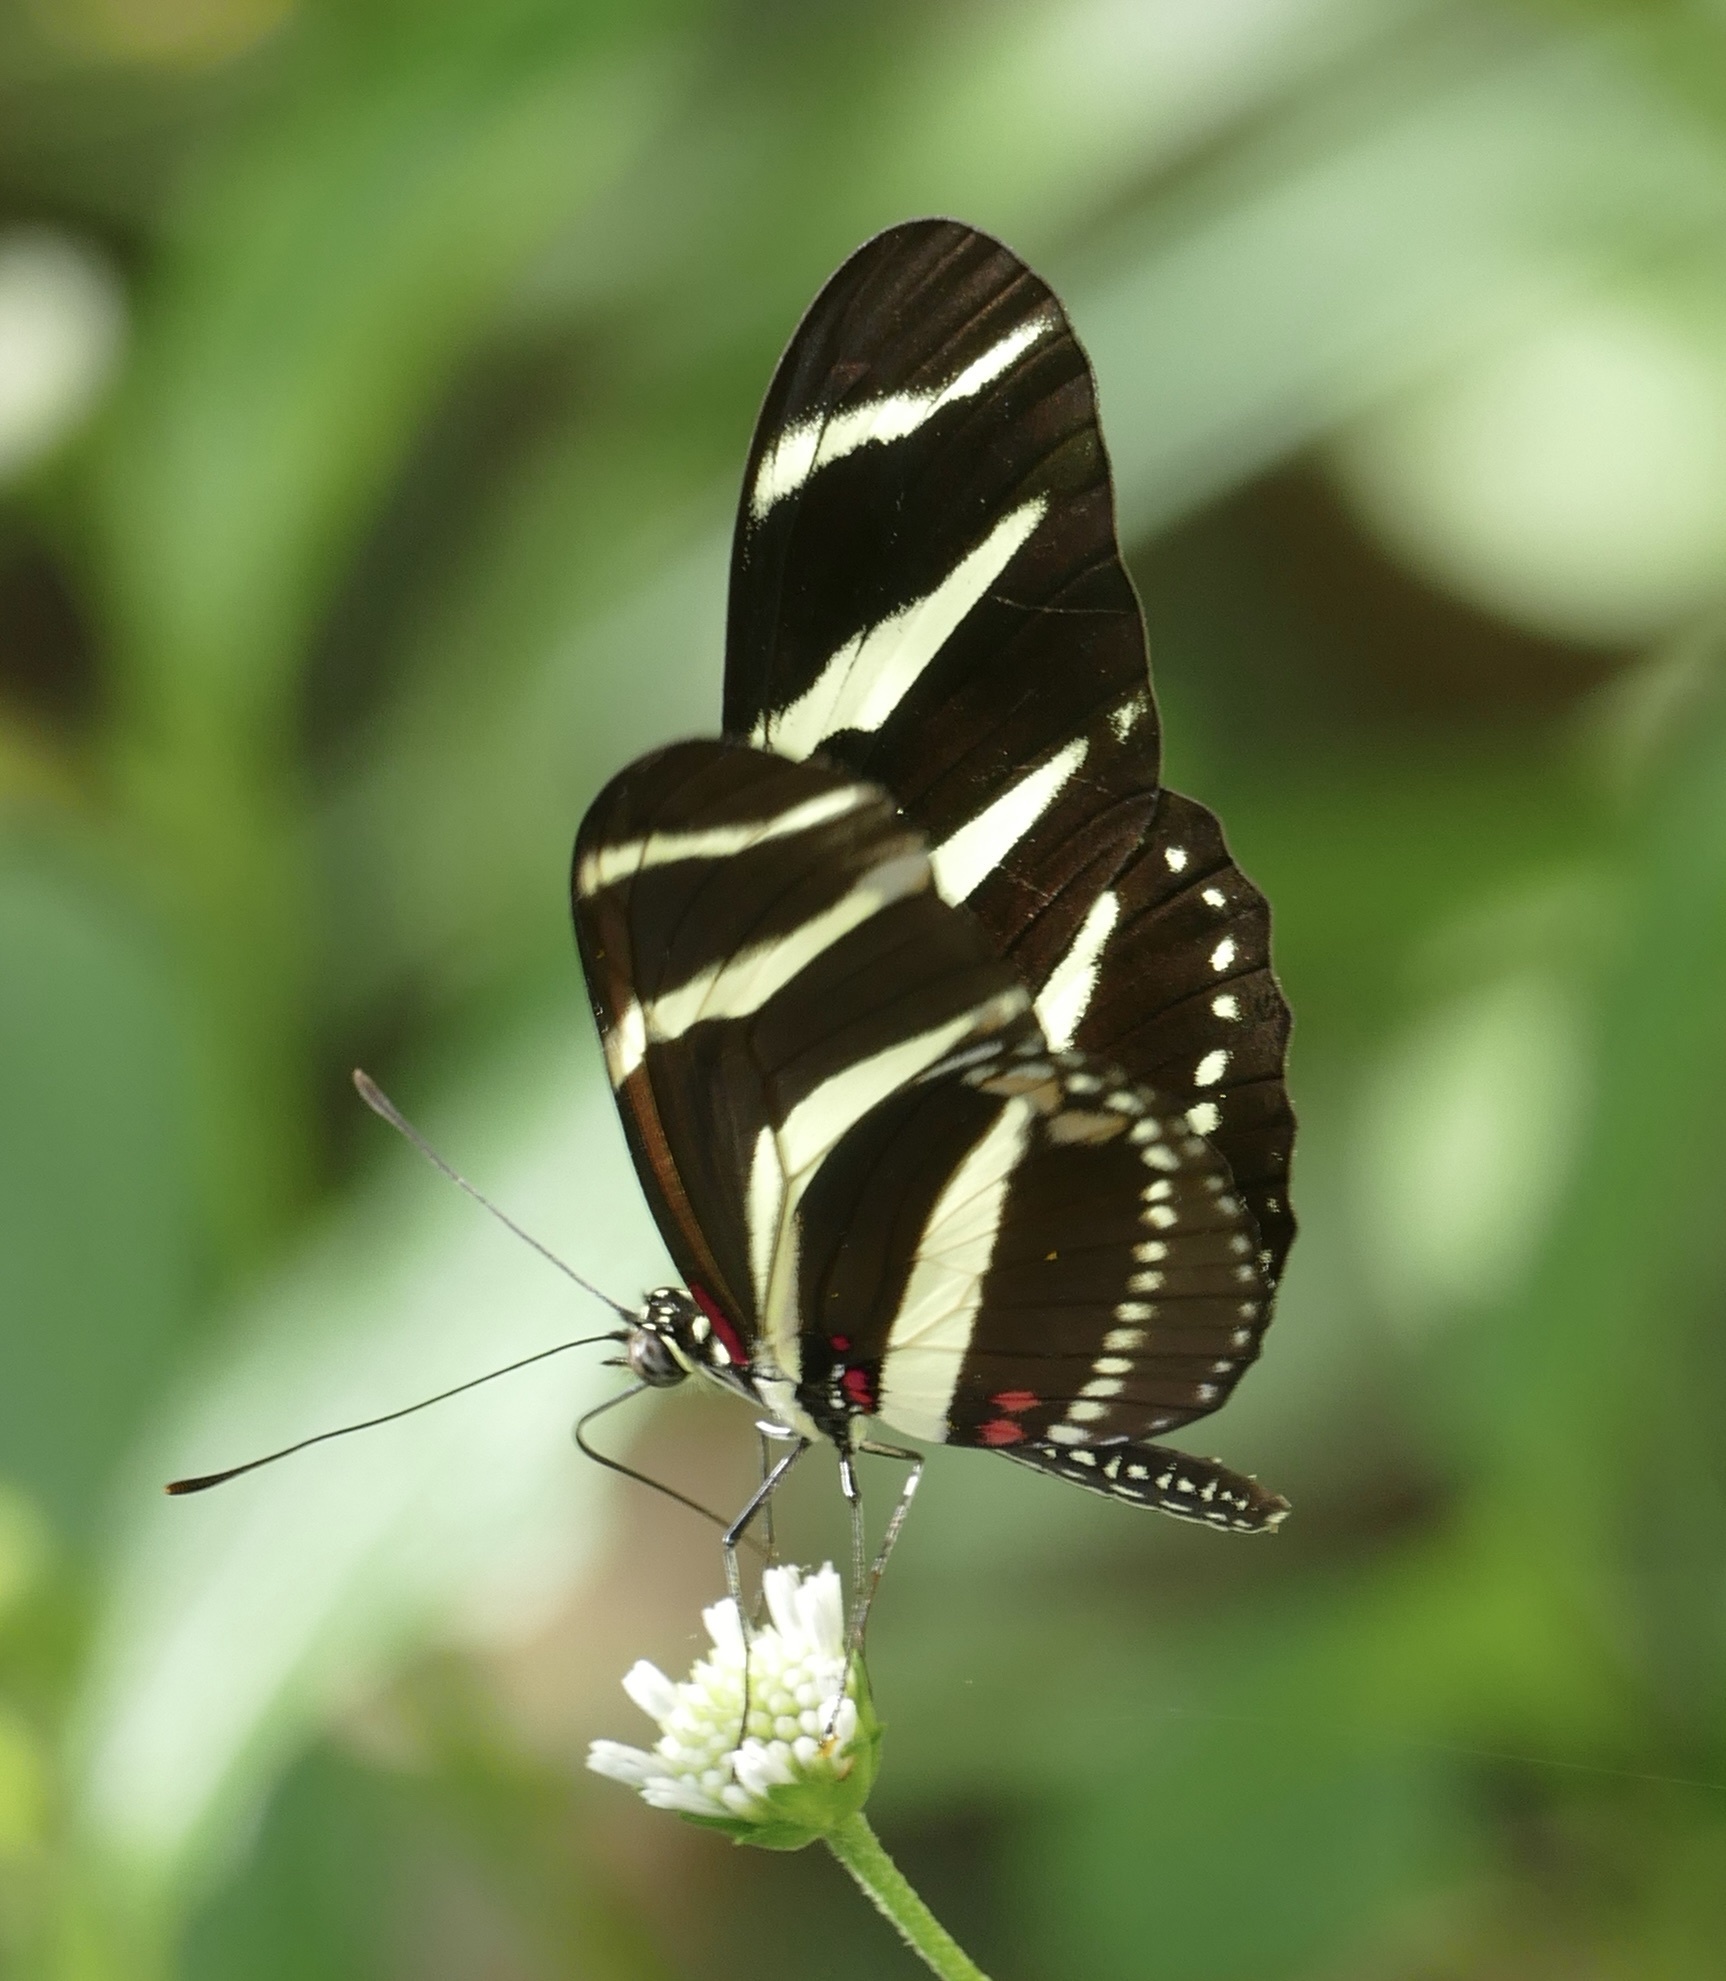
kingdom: Animalia
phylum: Arthropoda
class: Insecta
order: Lepidoptera
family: Nymphalidae
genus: Heliconius
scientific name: Heliconius charithonia
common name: Zebra long wing
